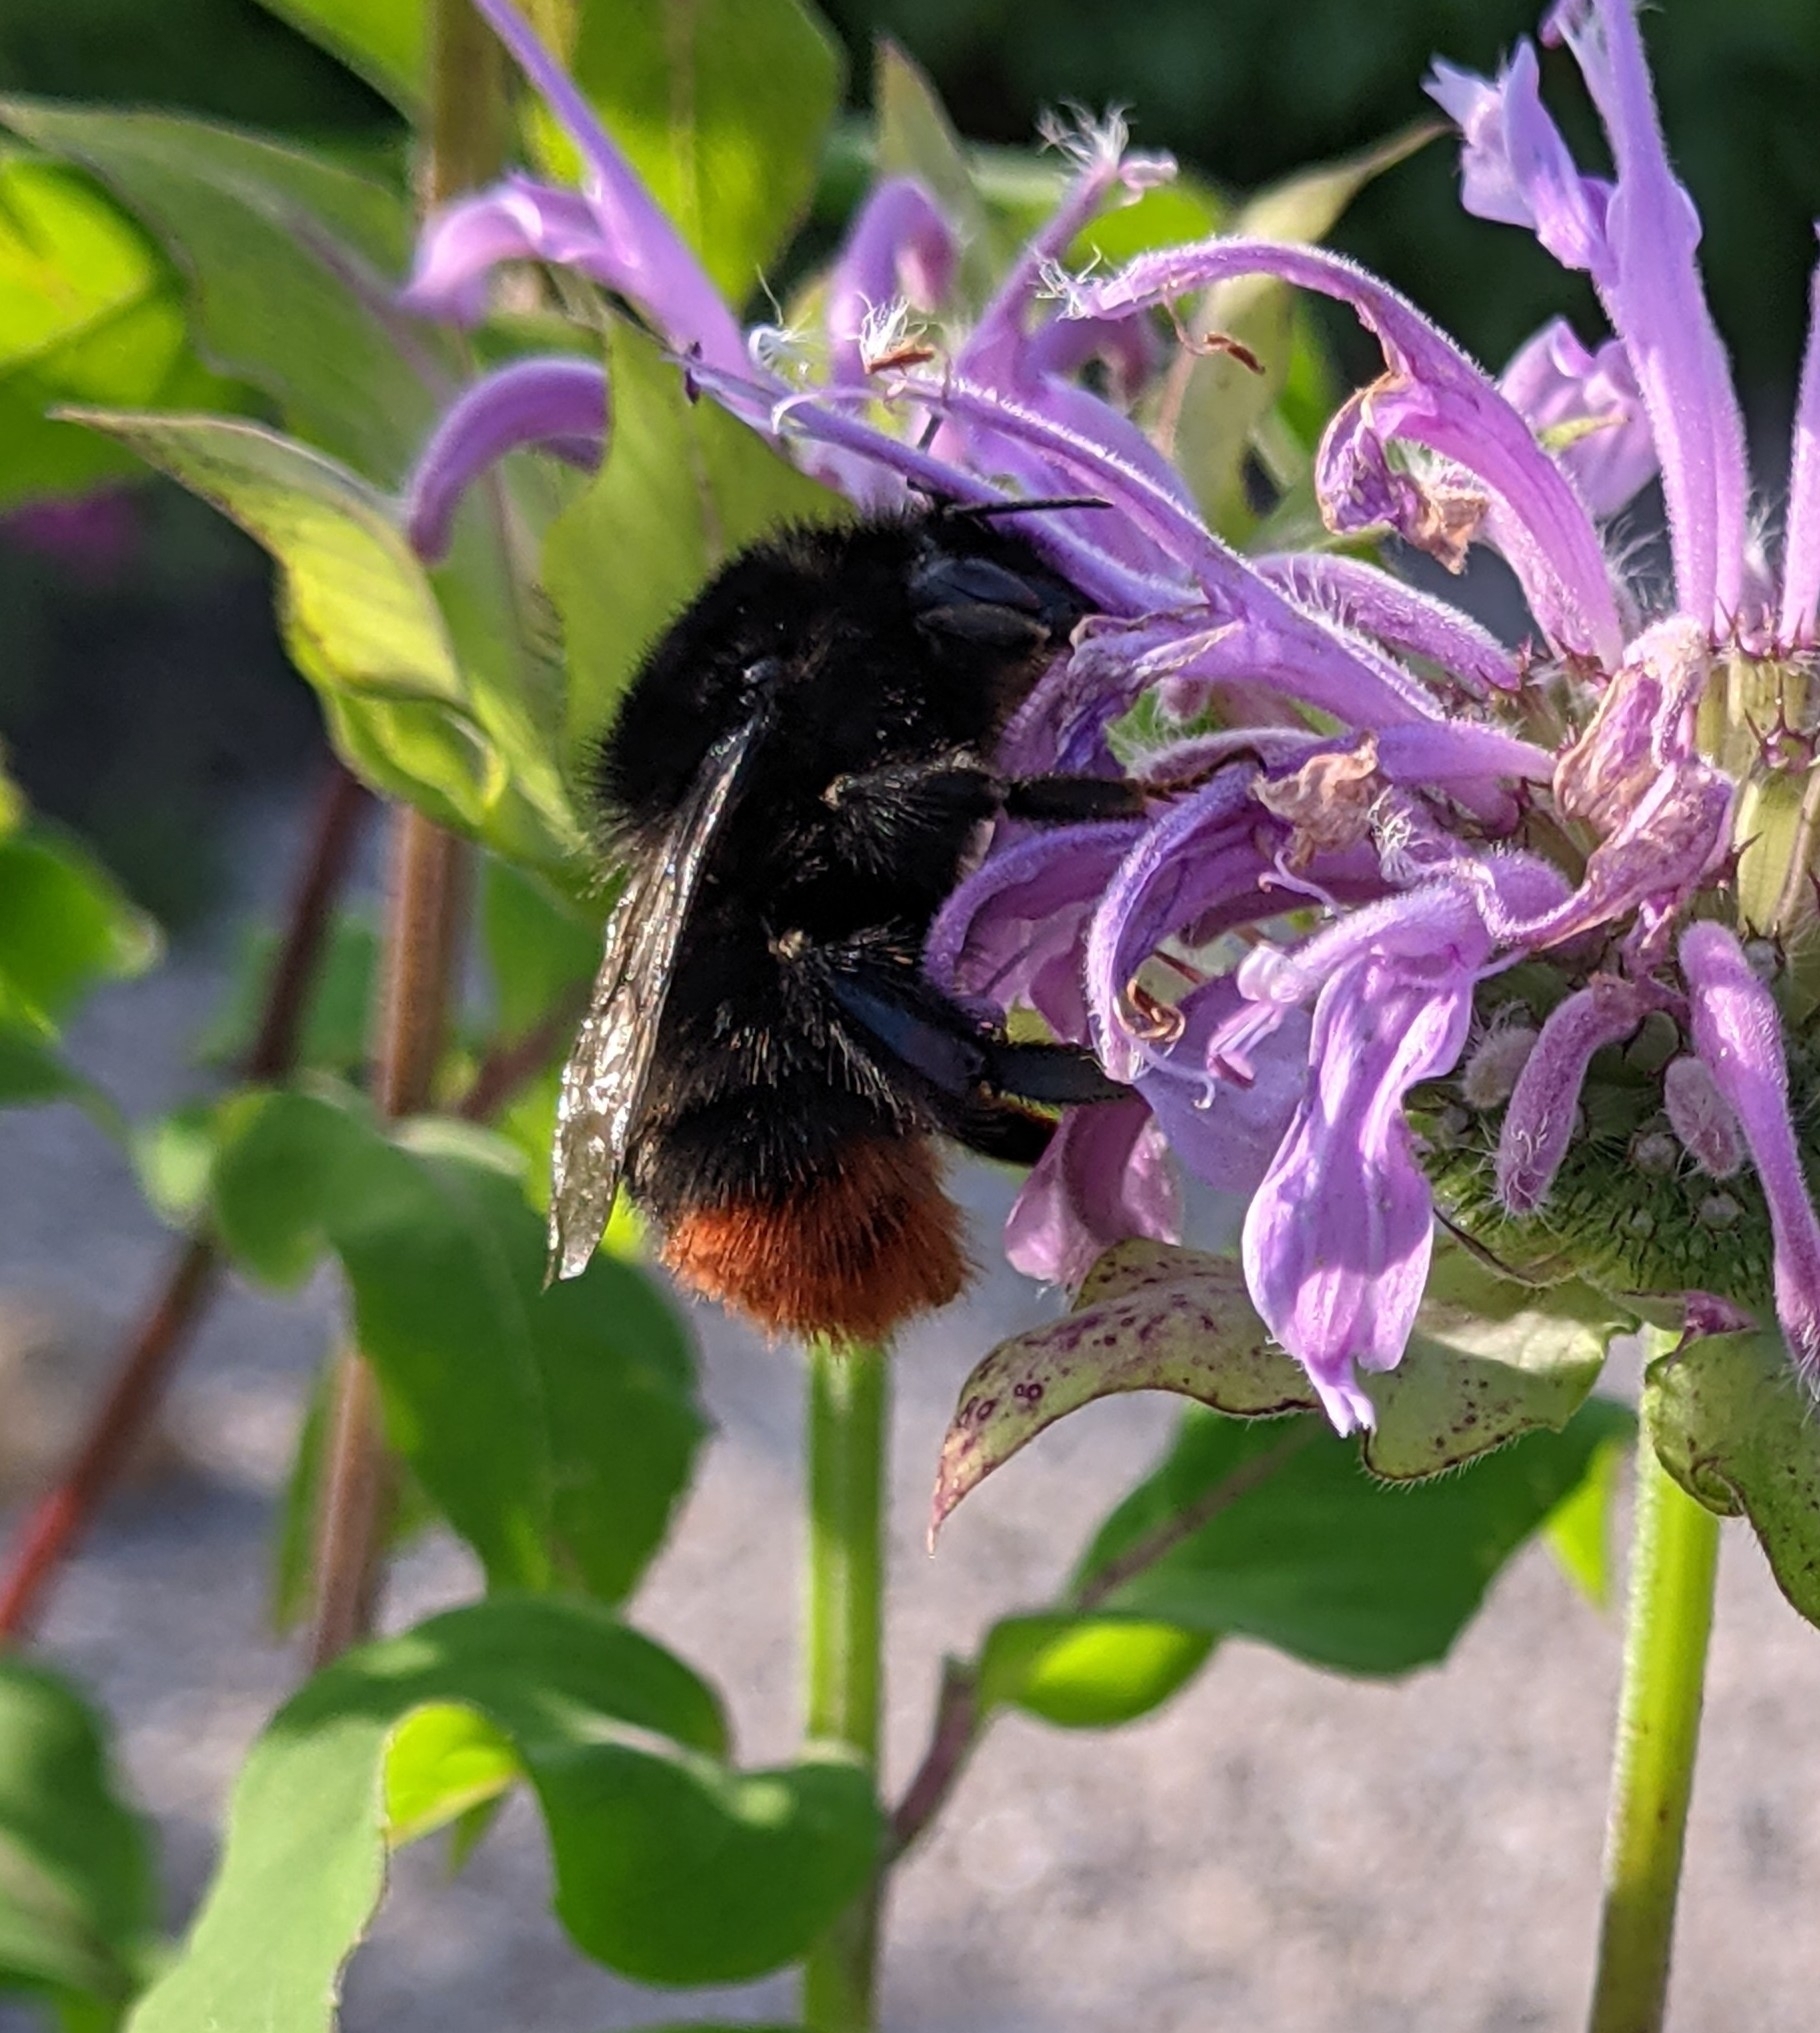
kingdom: Animalia
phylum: Arthropoda
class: Insecta
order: Hymenoptera
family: Apidae
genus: Bombus
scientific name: Bombus lapidarius
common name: Large red-tailed humble-bee
